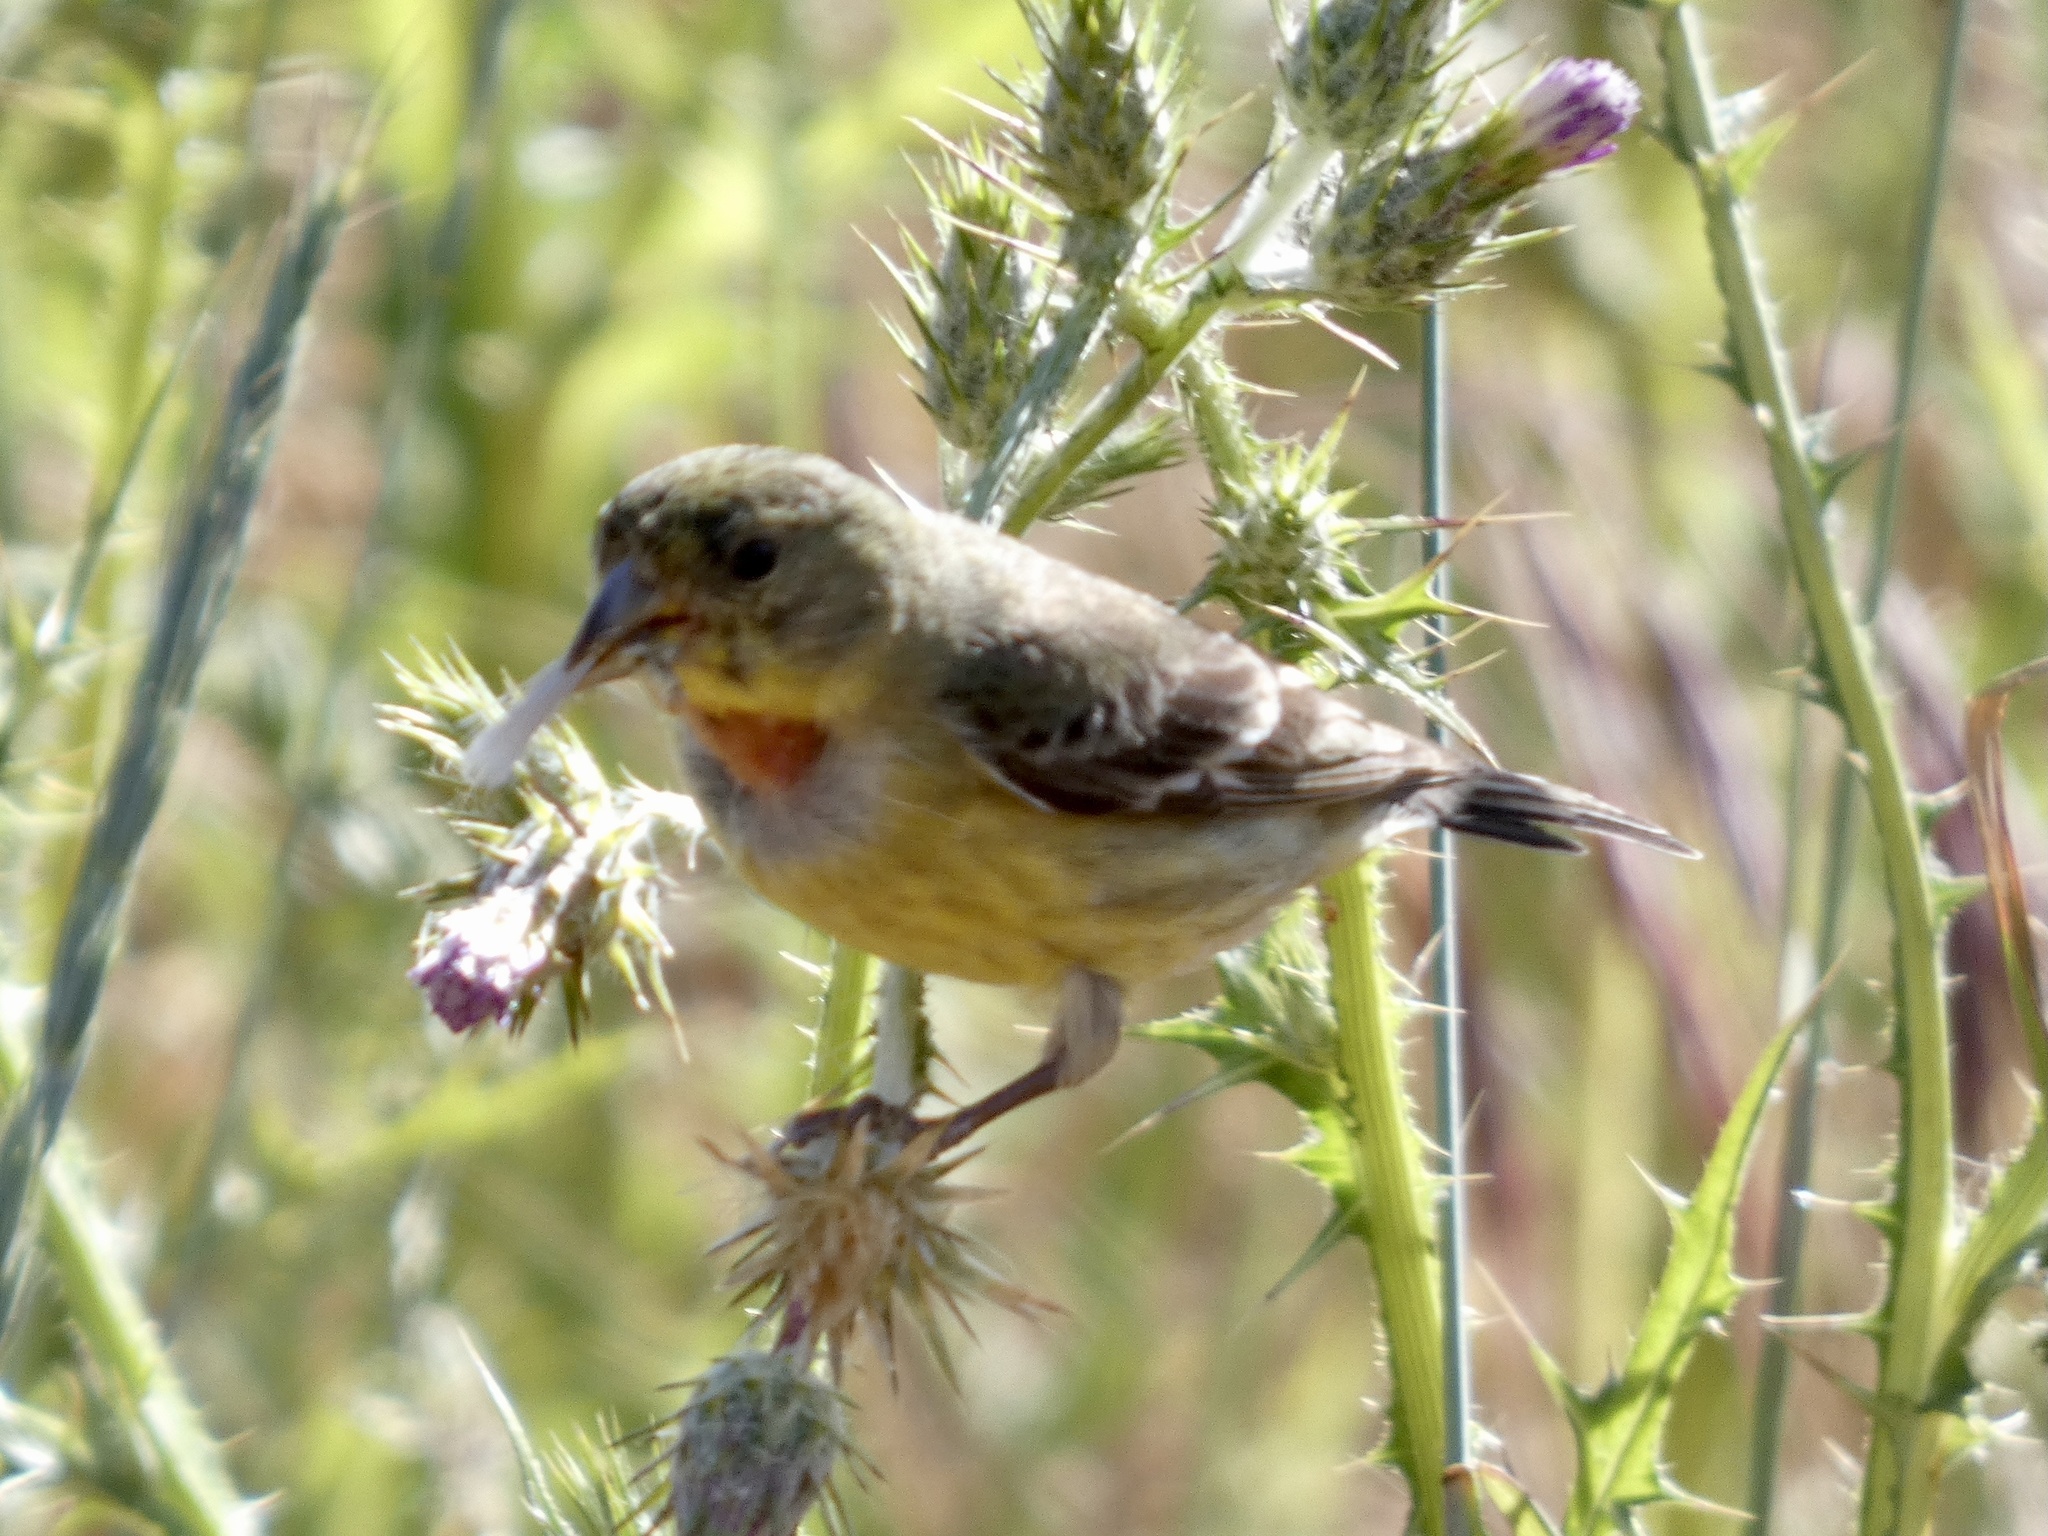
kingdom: Animalia
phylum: Chordata
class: Aves
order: Passeriformes
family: Fringillidae
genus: Spinus
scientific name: Spinus psaltria
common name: Lesser goldfinch
